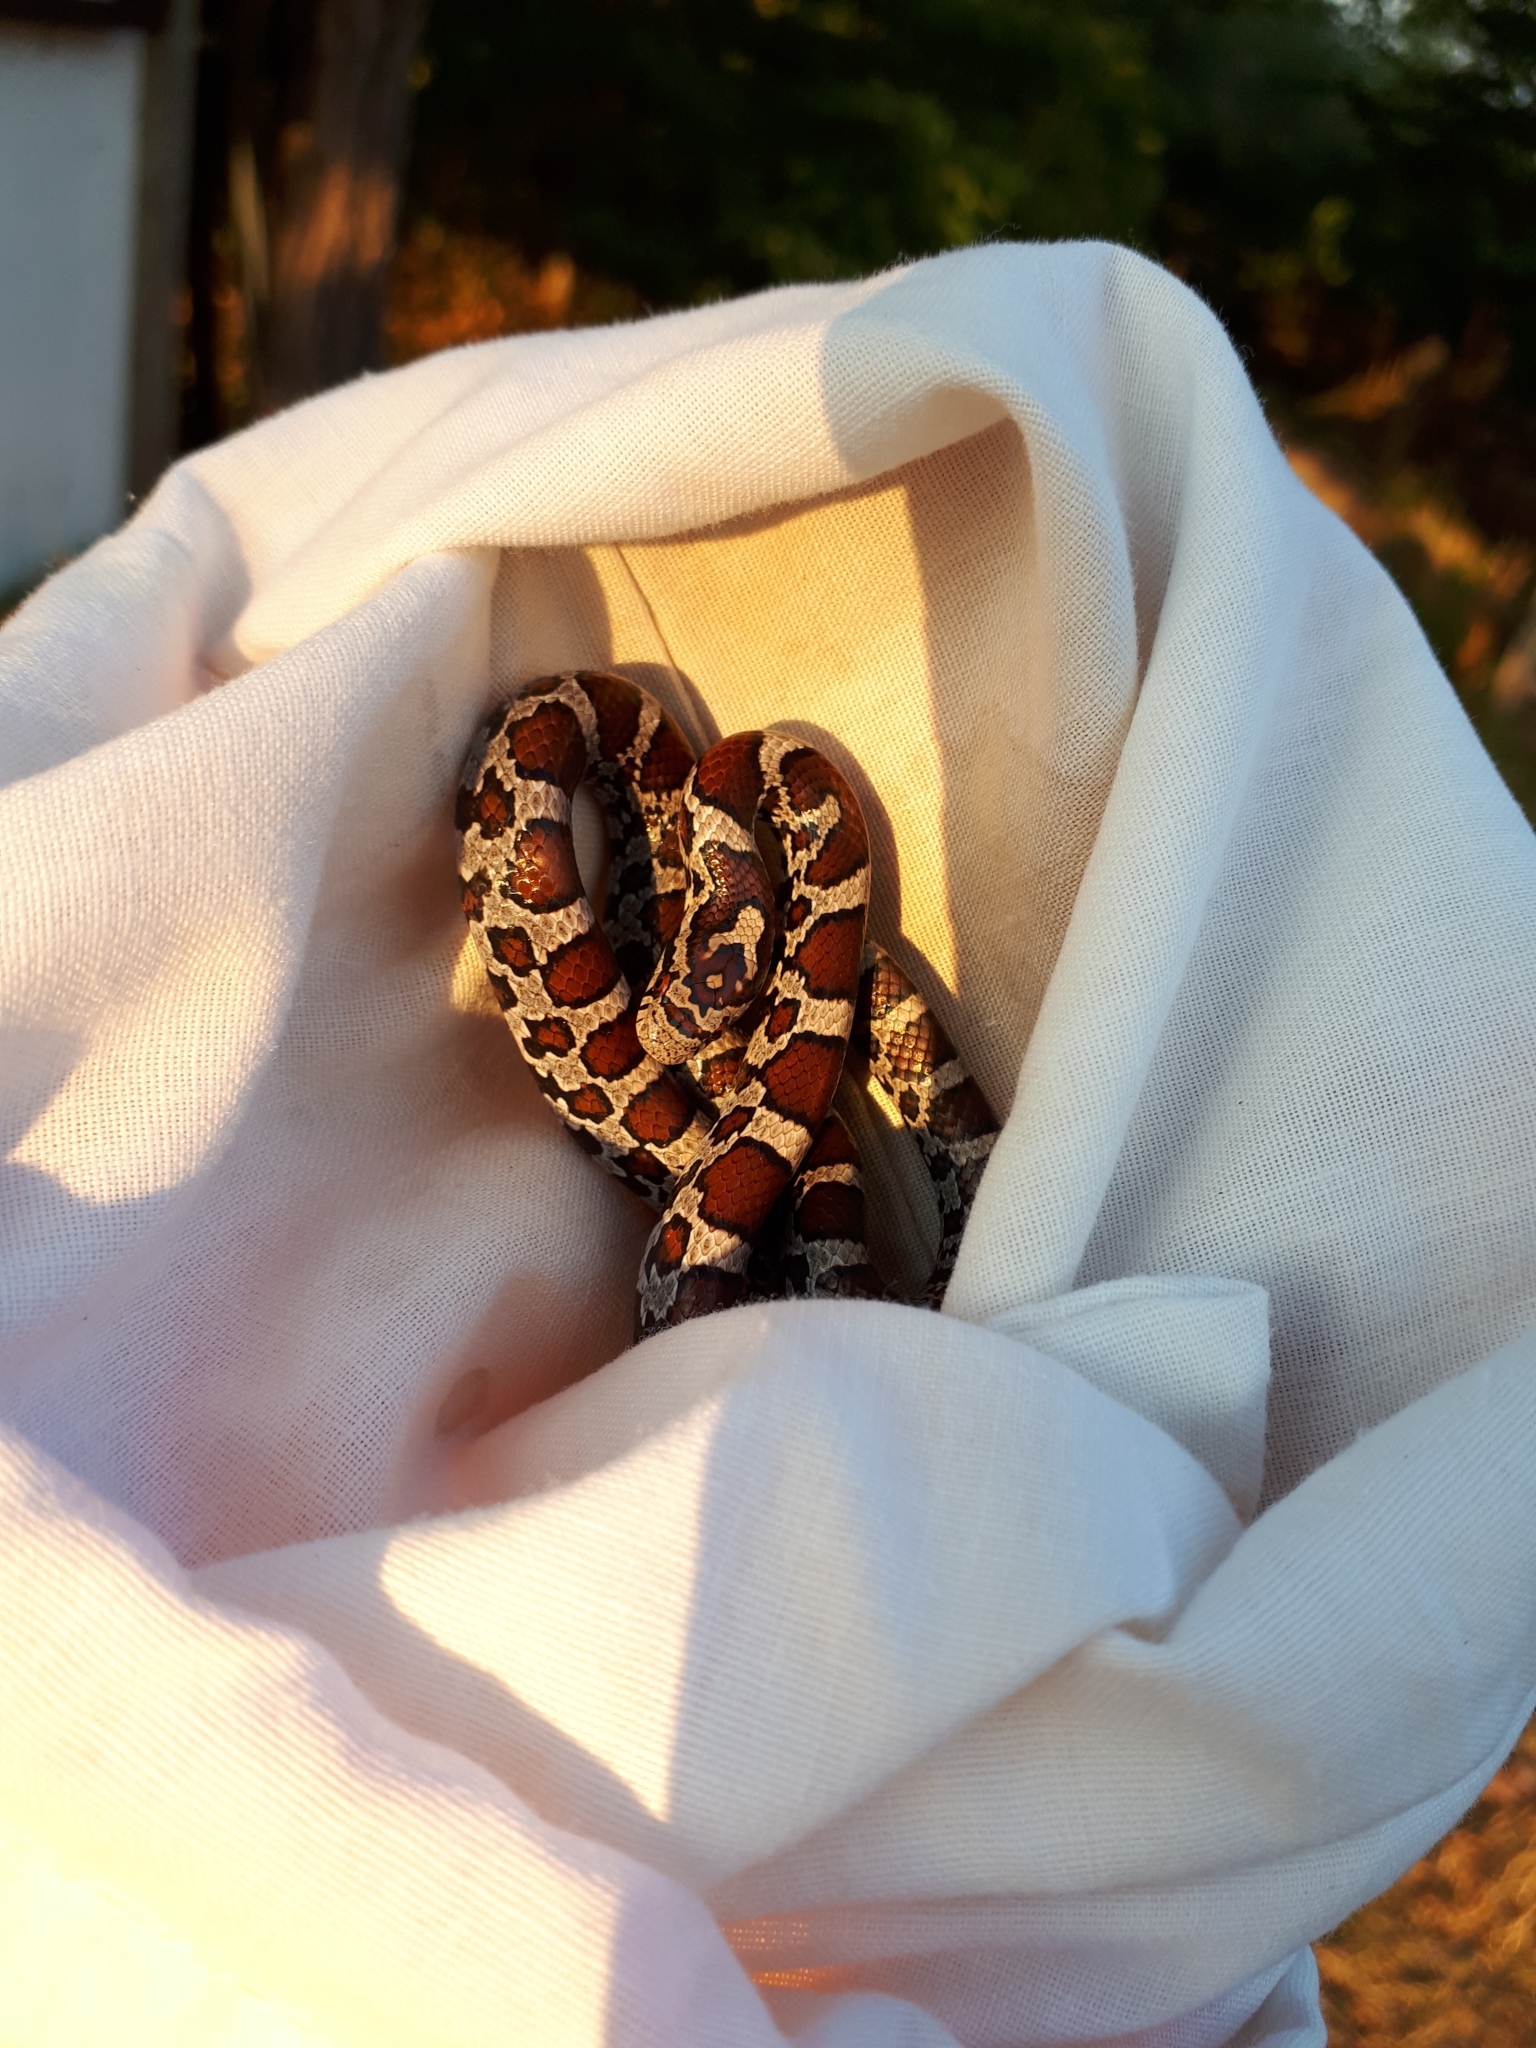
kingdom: Animalia
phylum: Chordata
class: Squamata
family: Colubridae
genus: Lampropeltis
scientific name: Lampropeltis triangulum
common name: Eastern milksnake
